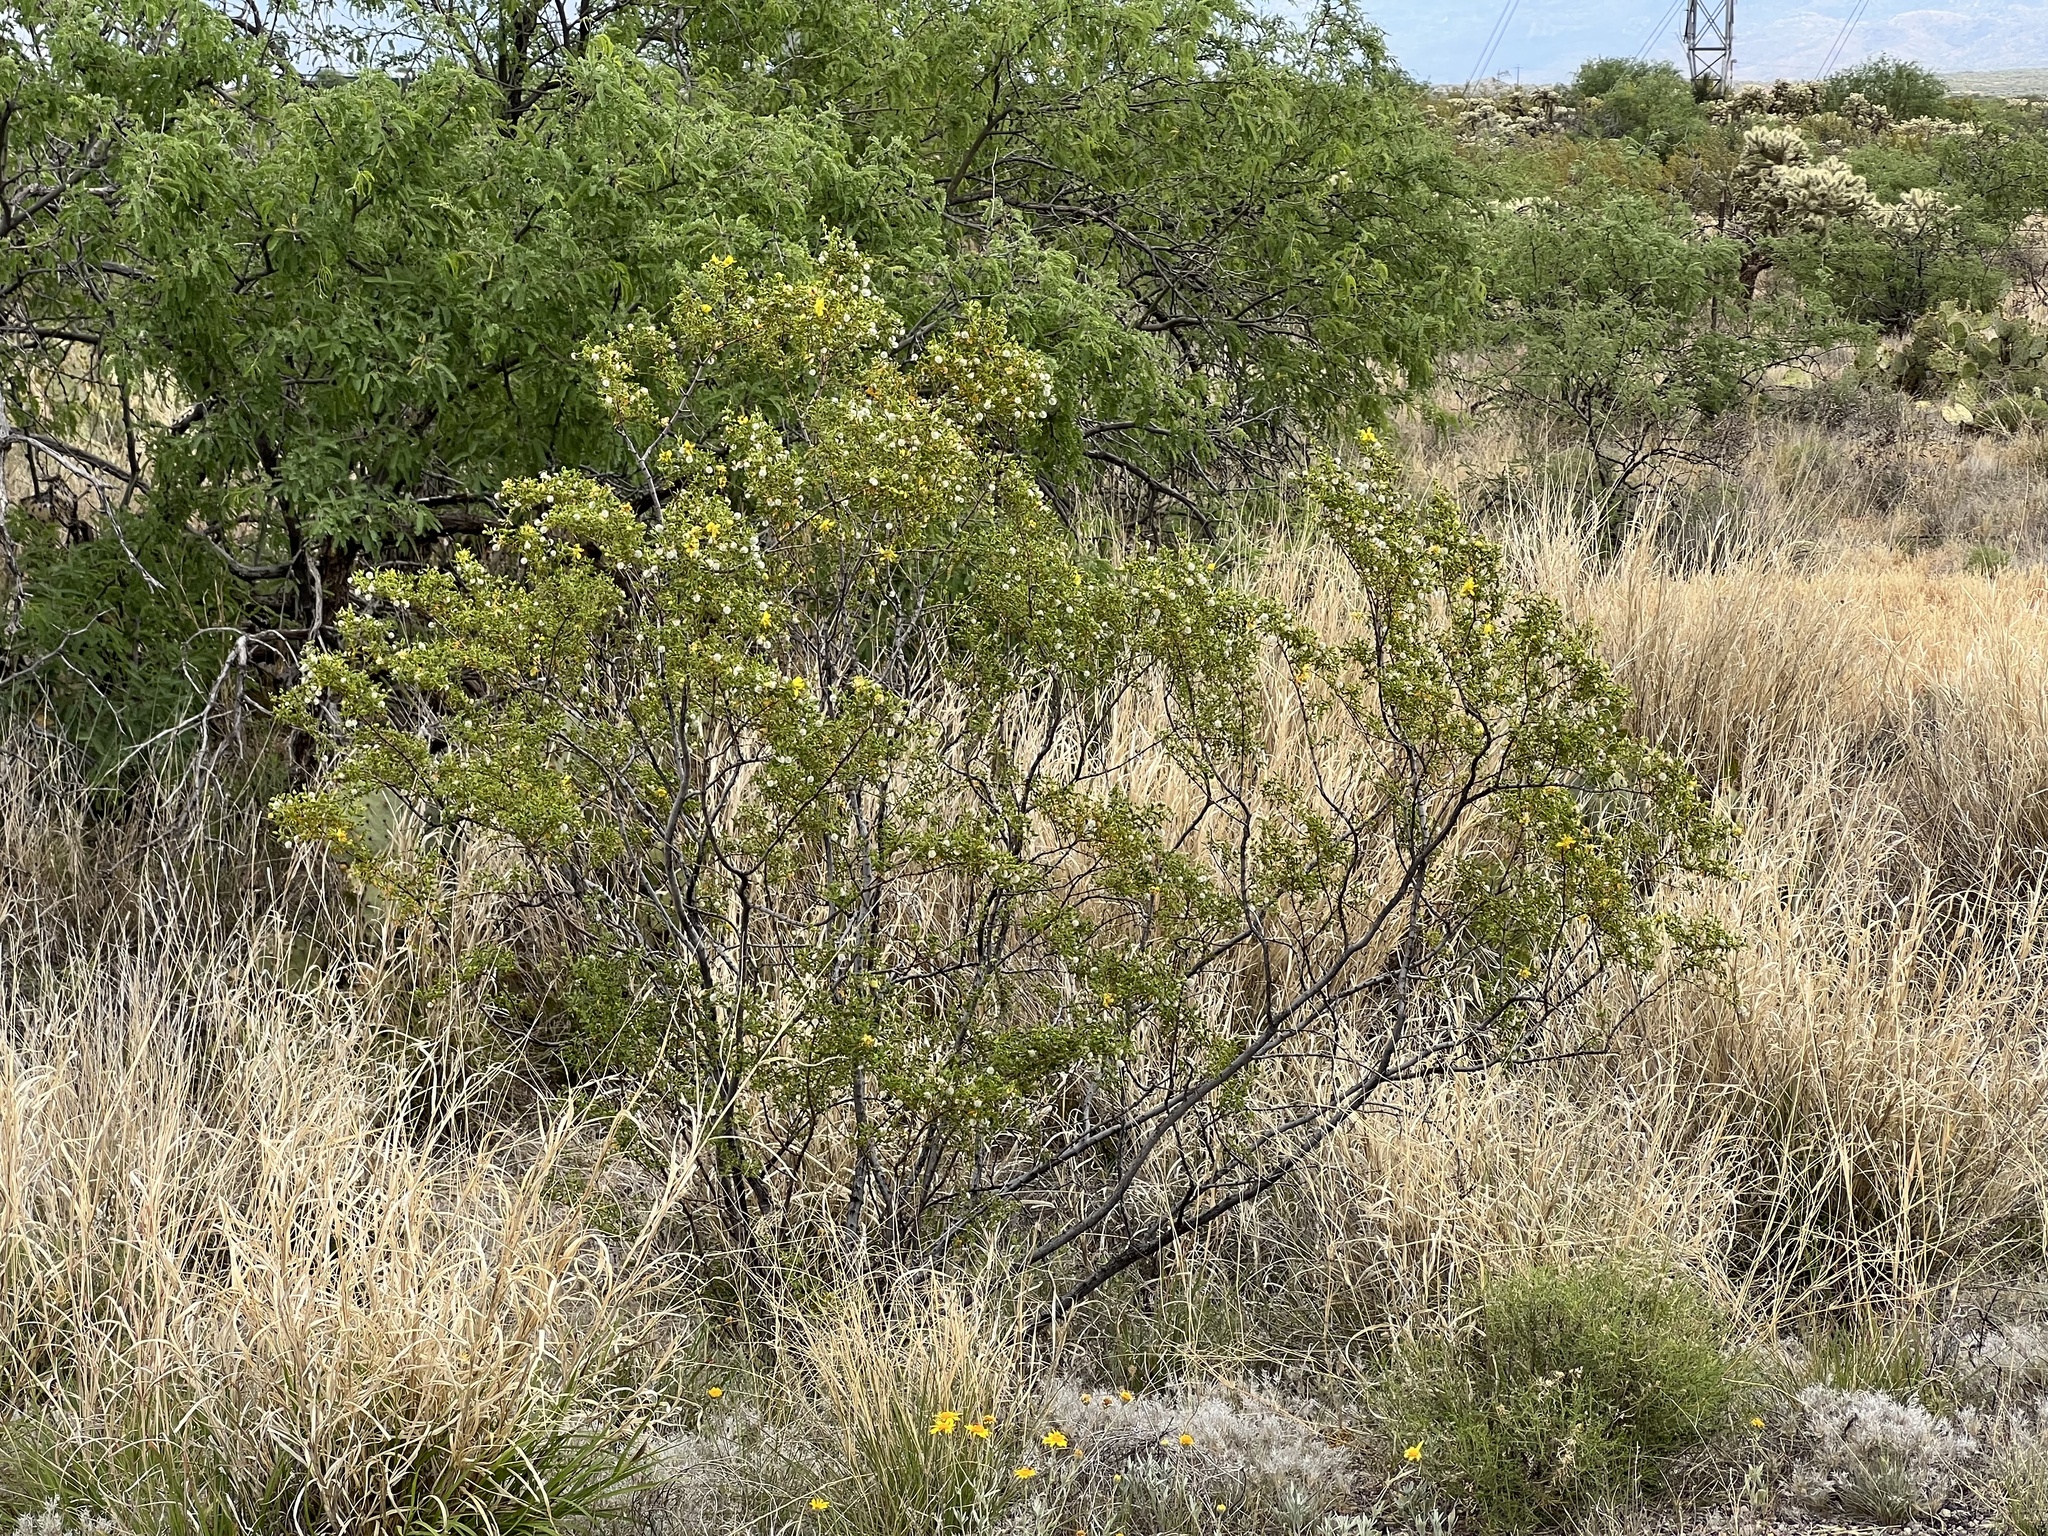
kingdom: Plantae
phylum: Tracheophyta
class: Magnoliopsida
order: Zygophyllales
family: Zygophyllaceae
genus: Larrea
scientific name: Larrea tridentata
